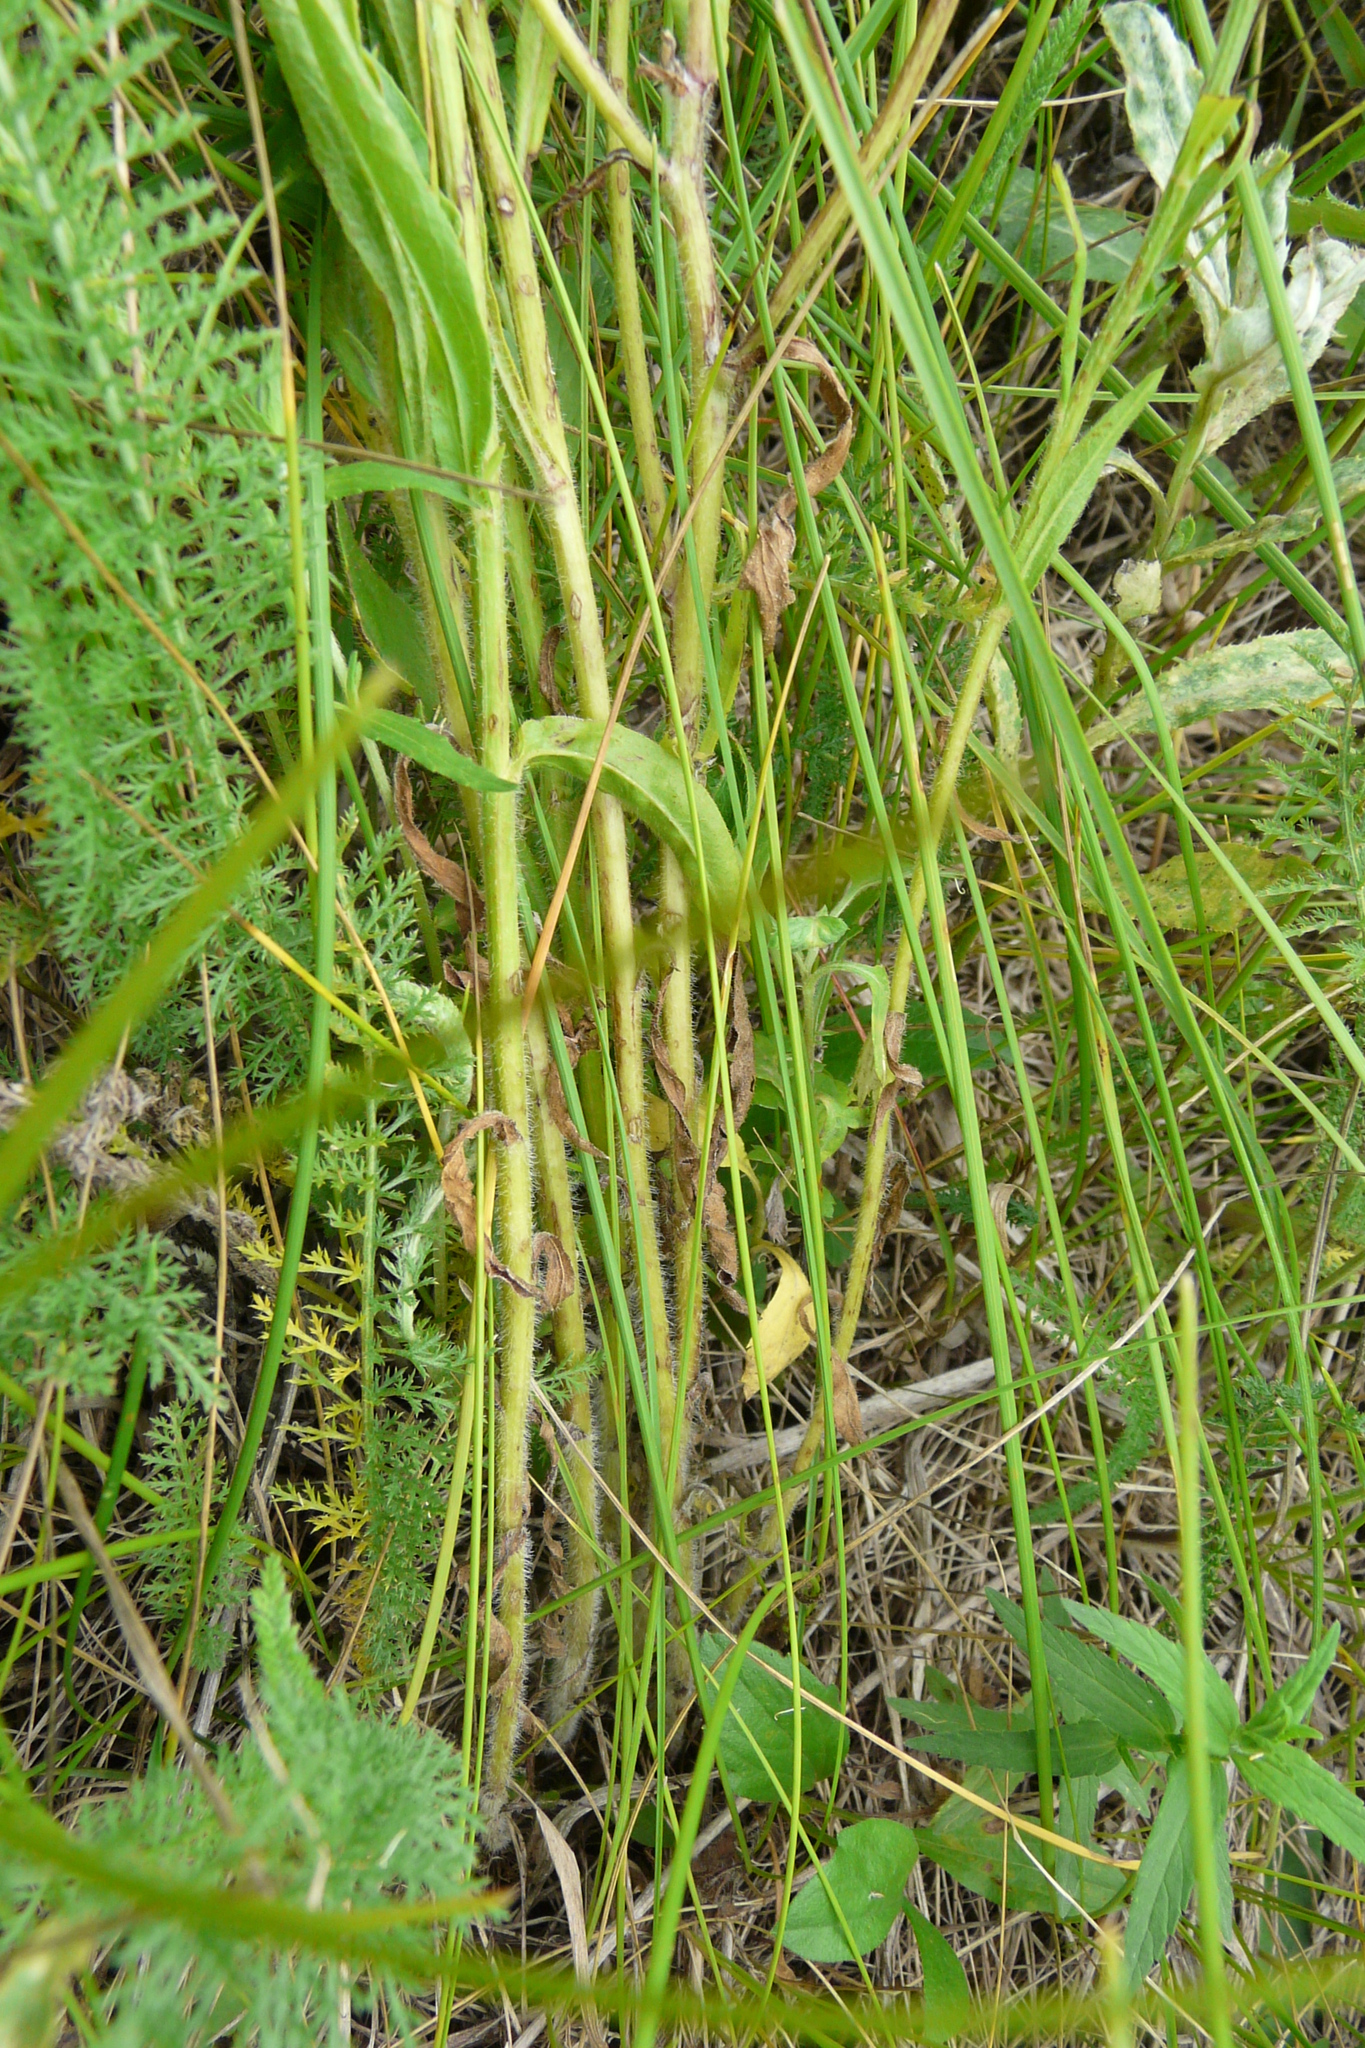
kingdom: Plantae
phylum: Tracheophyta
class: Magnoliopsida
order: Asterales
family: Asteraceae
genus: Erigeron
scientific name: Erigeron annuus
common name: Tall fleabane
